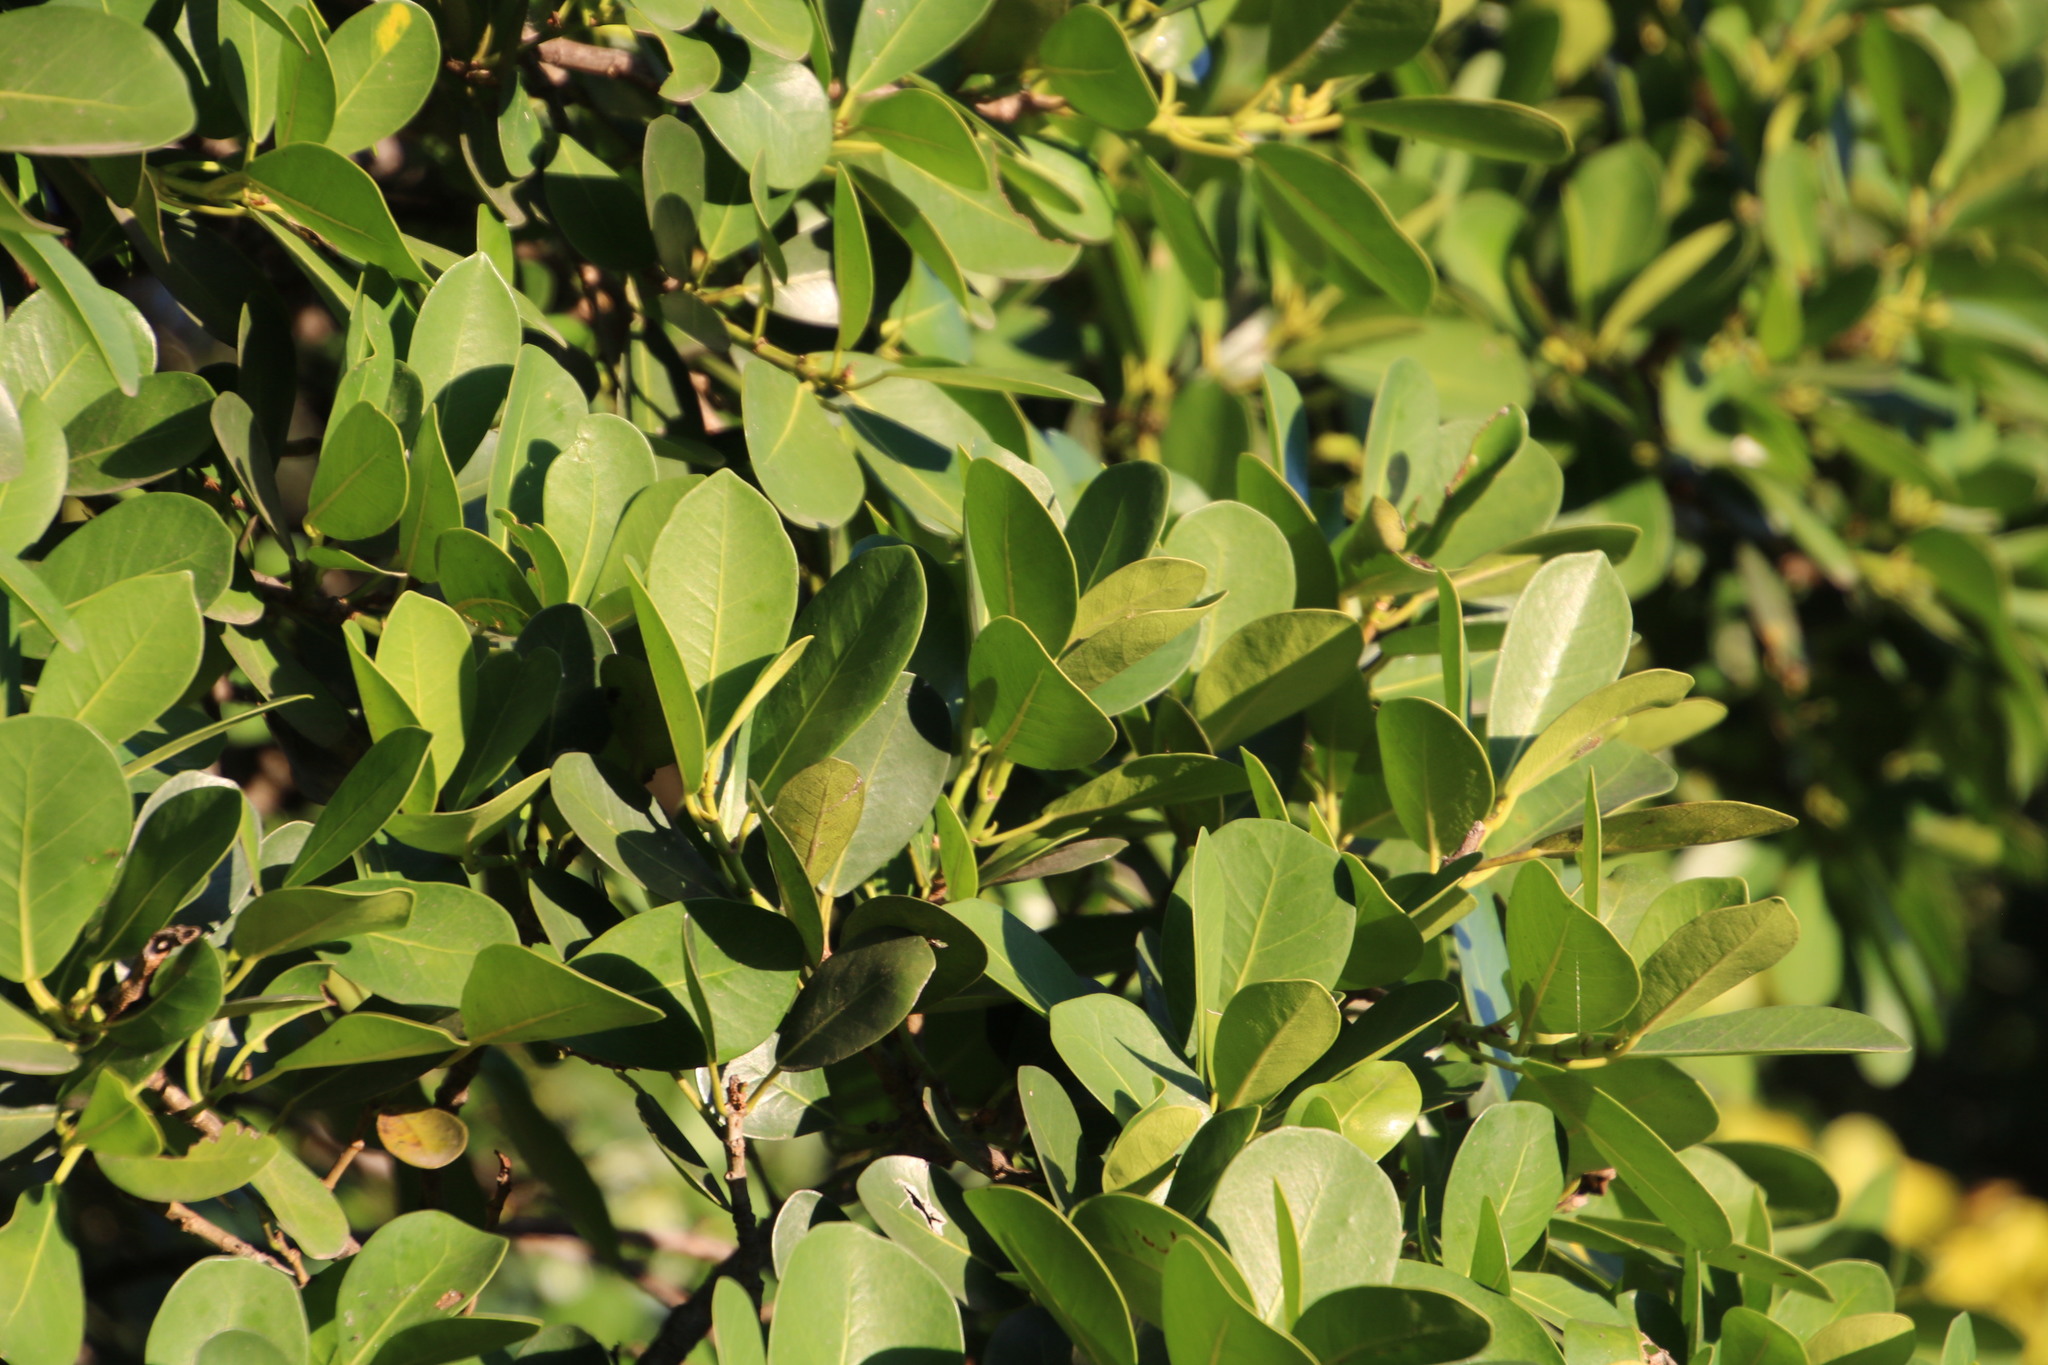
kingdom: Plantae
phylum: Tracheophyta
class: Magnoliopsida
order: Rosales
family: Moraceae
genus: Ficus
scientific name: Ficus natalensis
